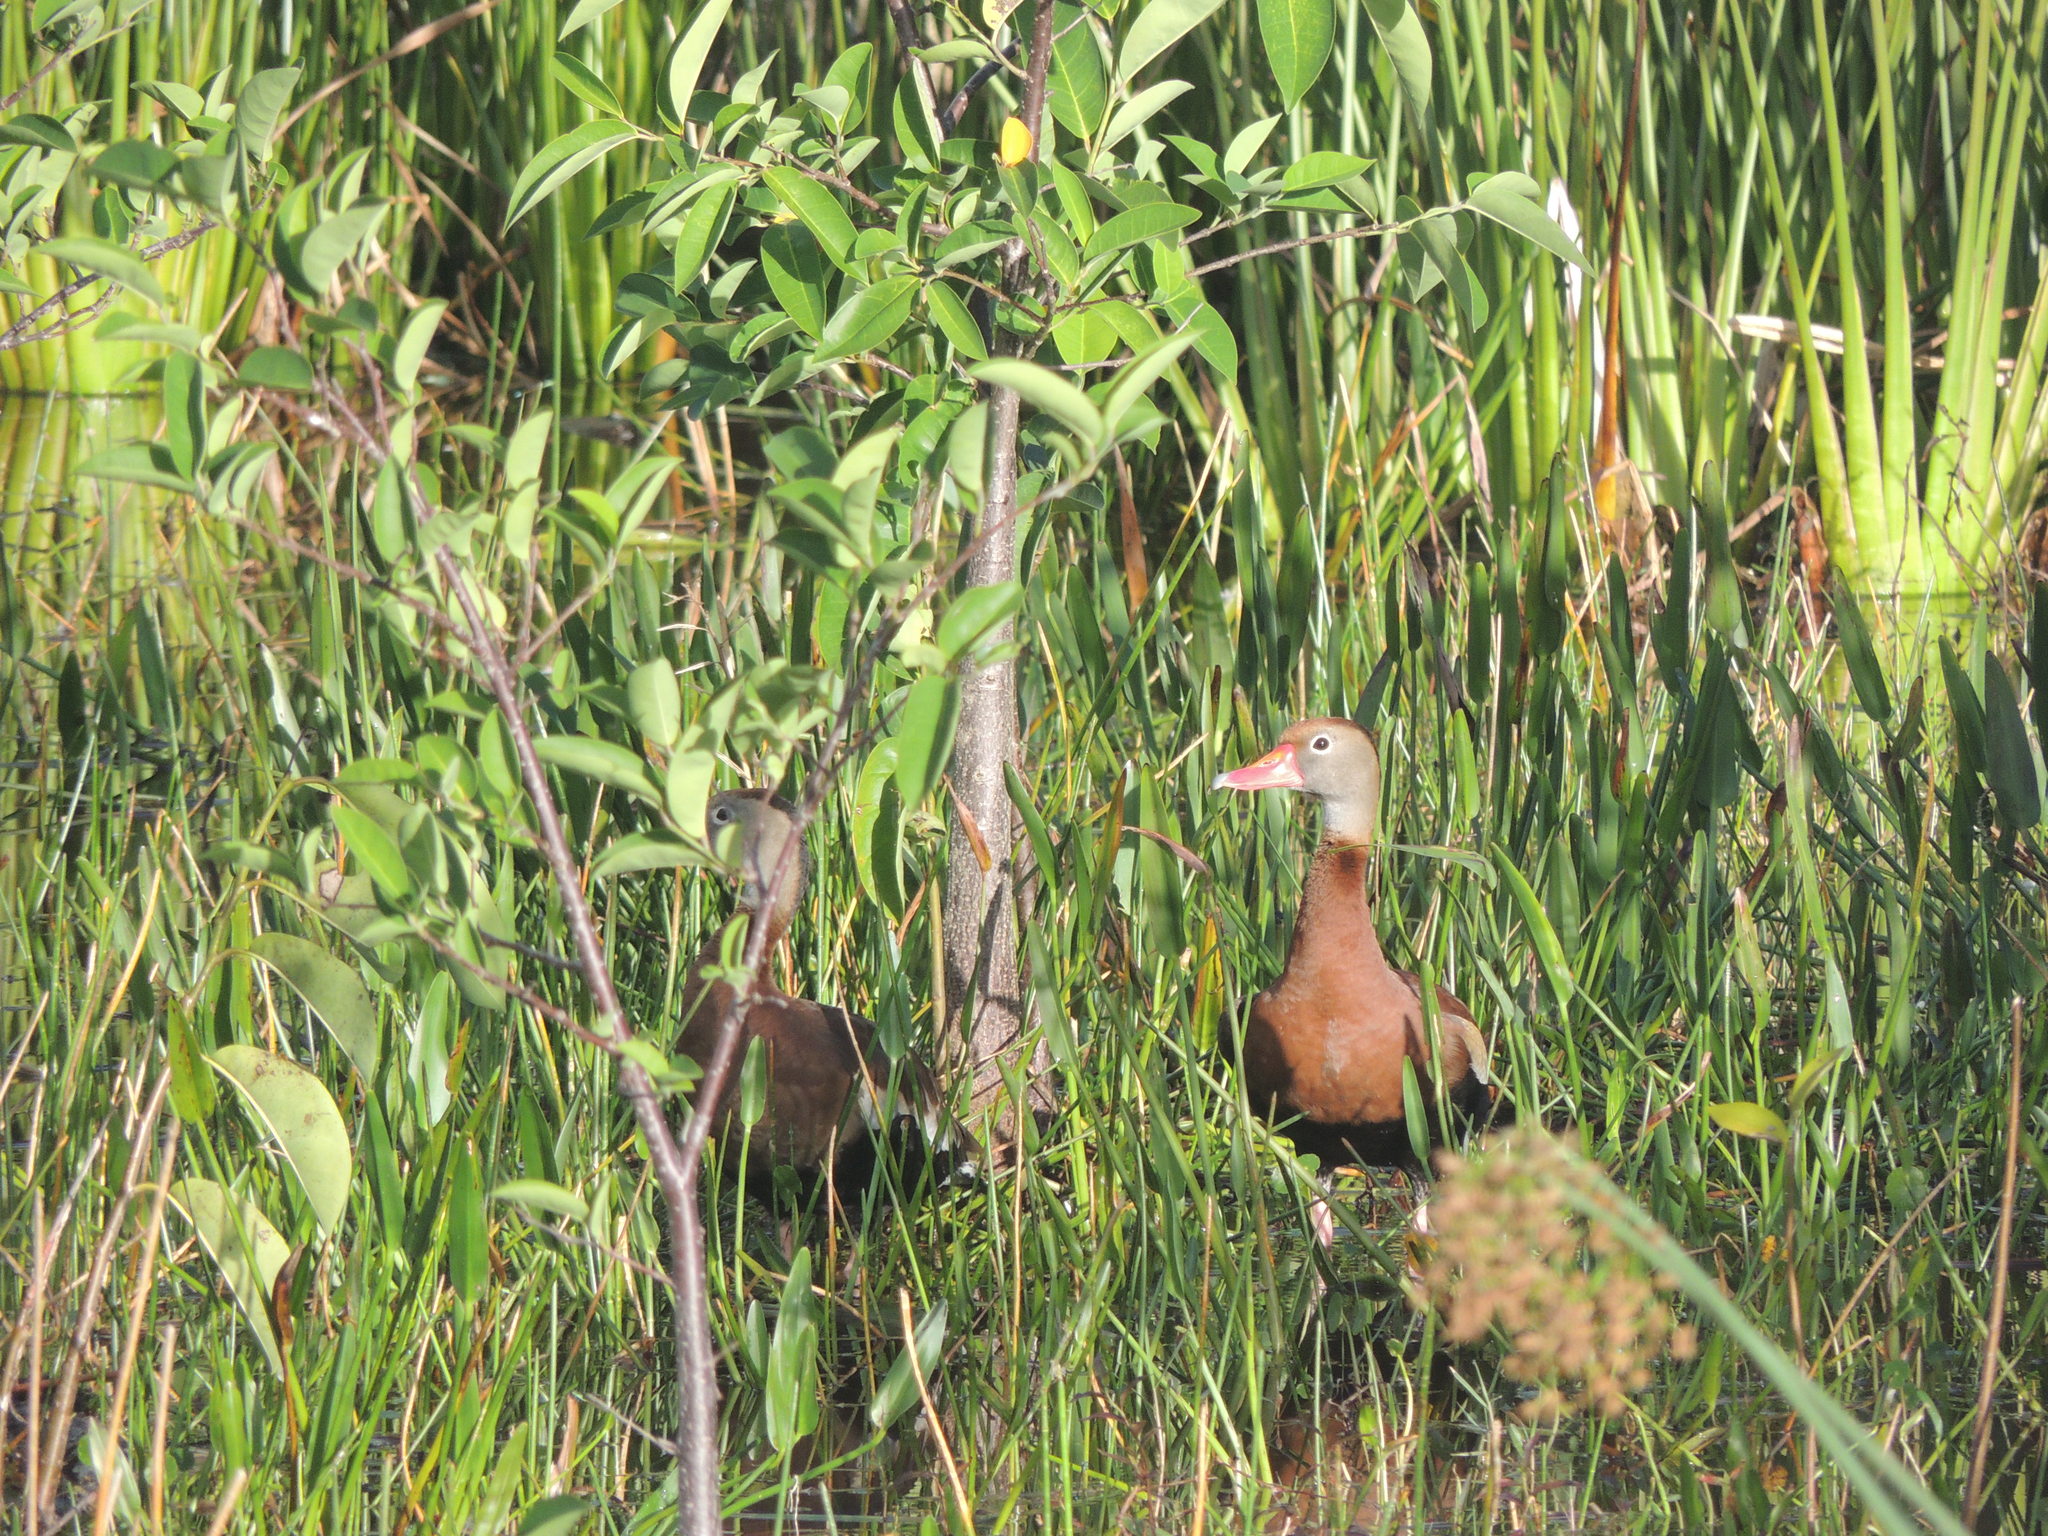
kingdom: Animalia
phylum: Chordata
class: Aves
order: Anseriformes
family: Anatidae
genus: Dendrocygna
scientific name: Dendrocygna autumnalis
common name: Black-bellied whistling duck
